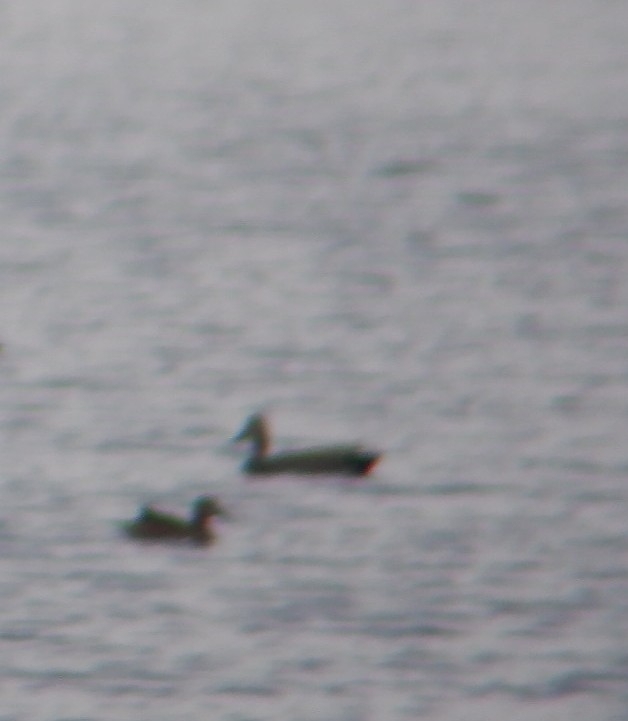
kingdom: Animalia
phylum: Chordata
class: Aves
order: Anseriformes
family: Anatidae
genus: Mareca
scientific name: Mareca strepera
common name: Gadwall
